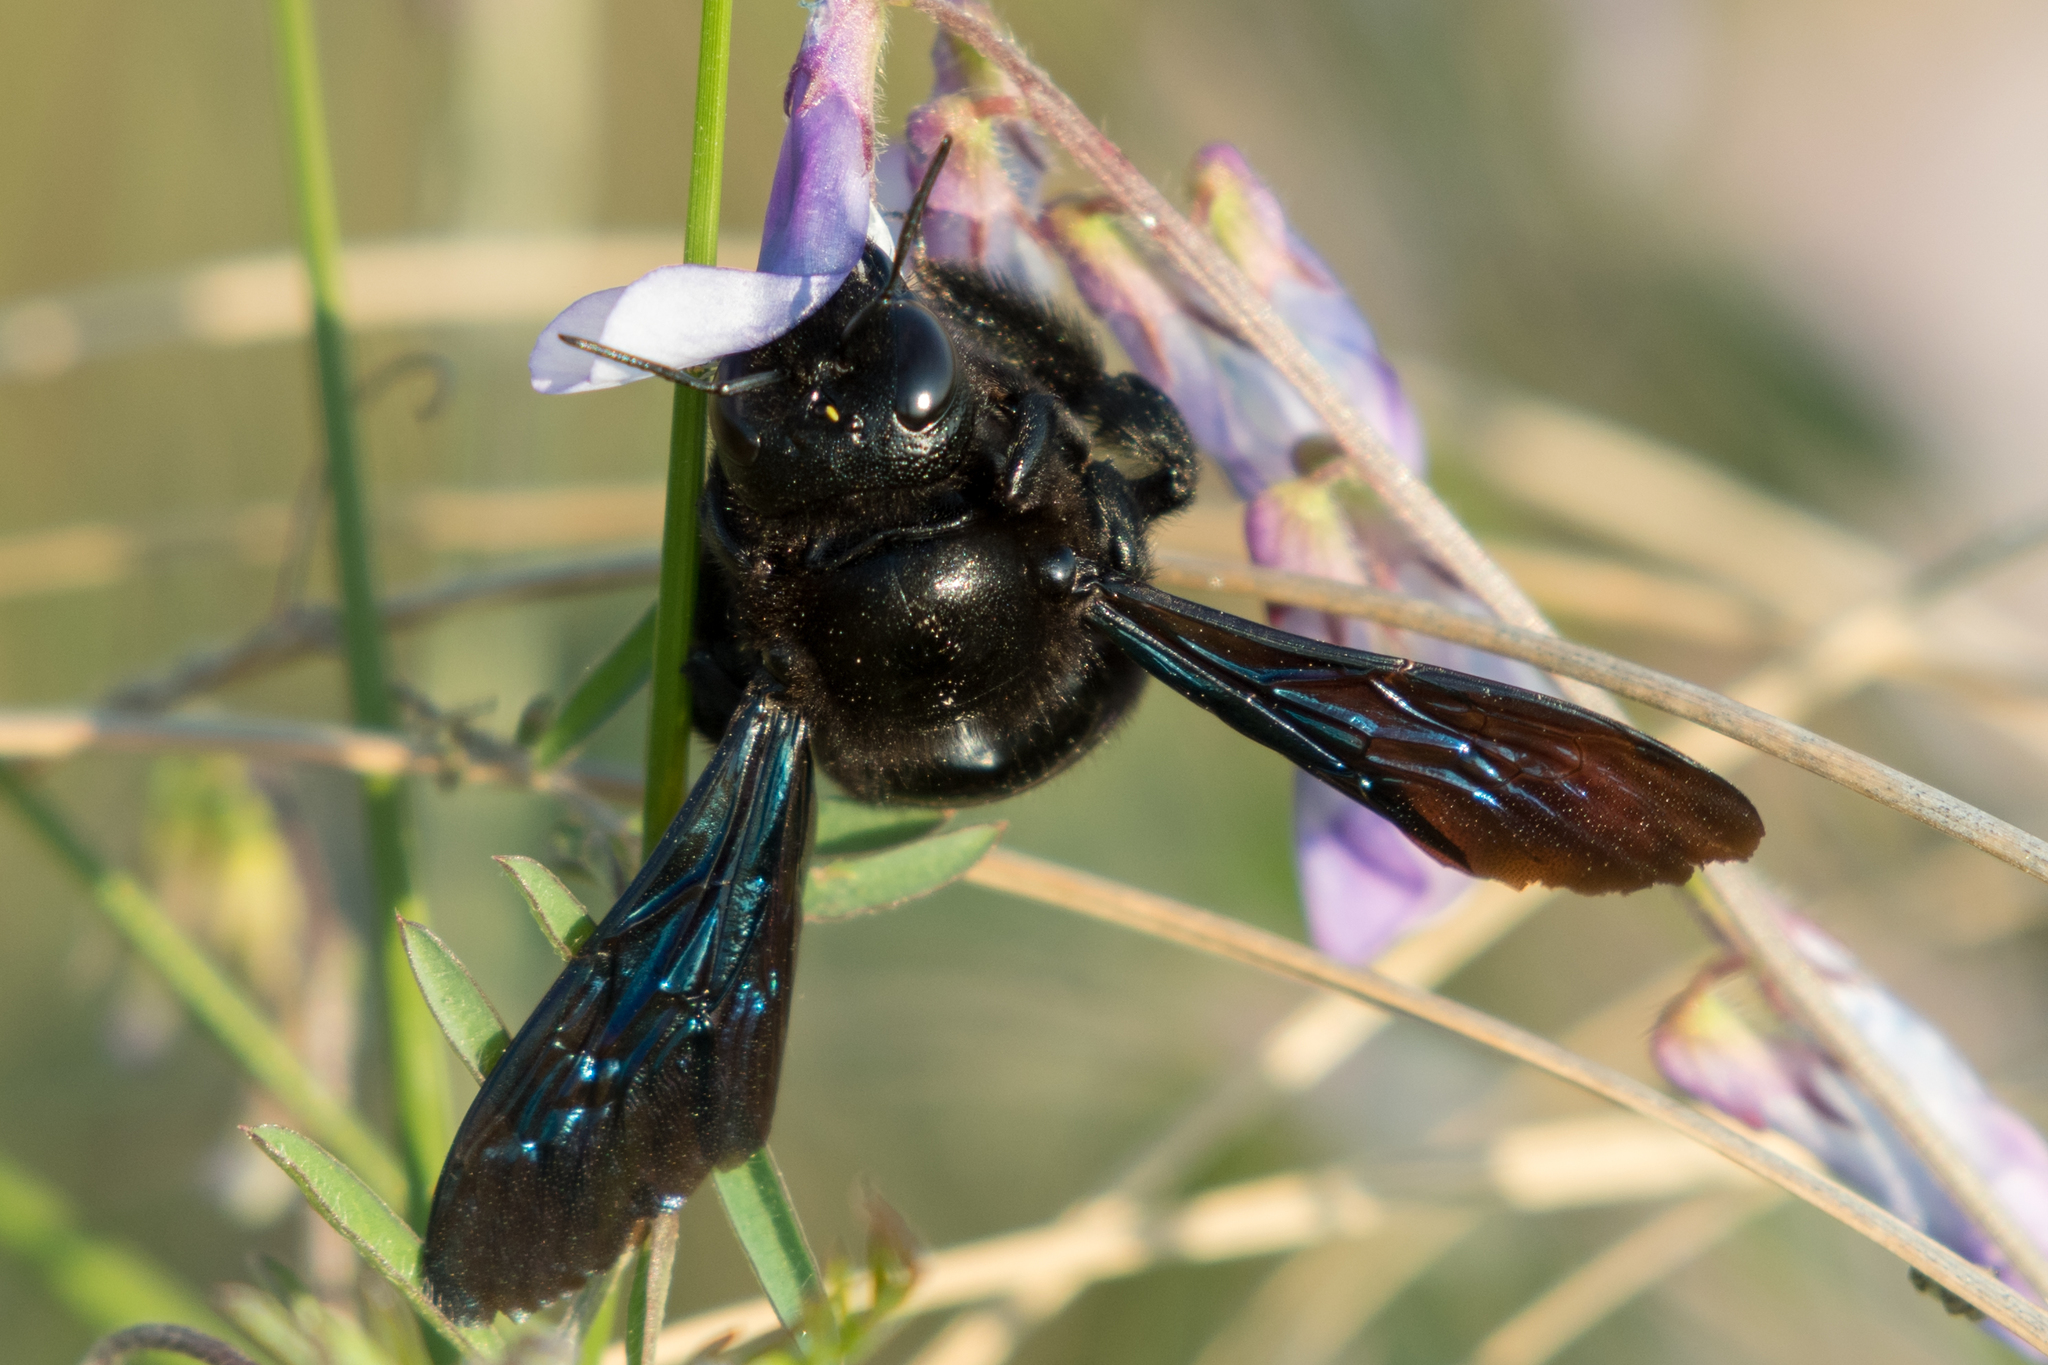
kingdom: Animalia
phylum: Arthropoda
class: Insecta
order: Hymenoptera
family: Apidae
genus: Xylocopa
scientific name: Xylocopa violacea
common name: Violet carpenter bee
